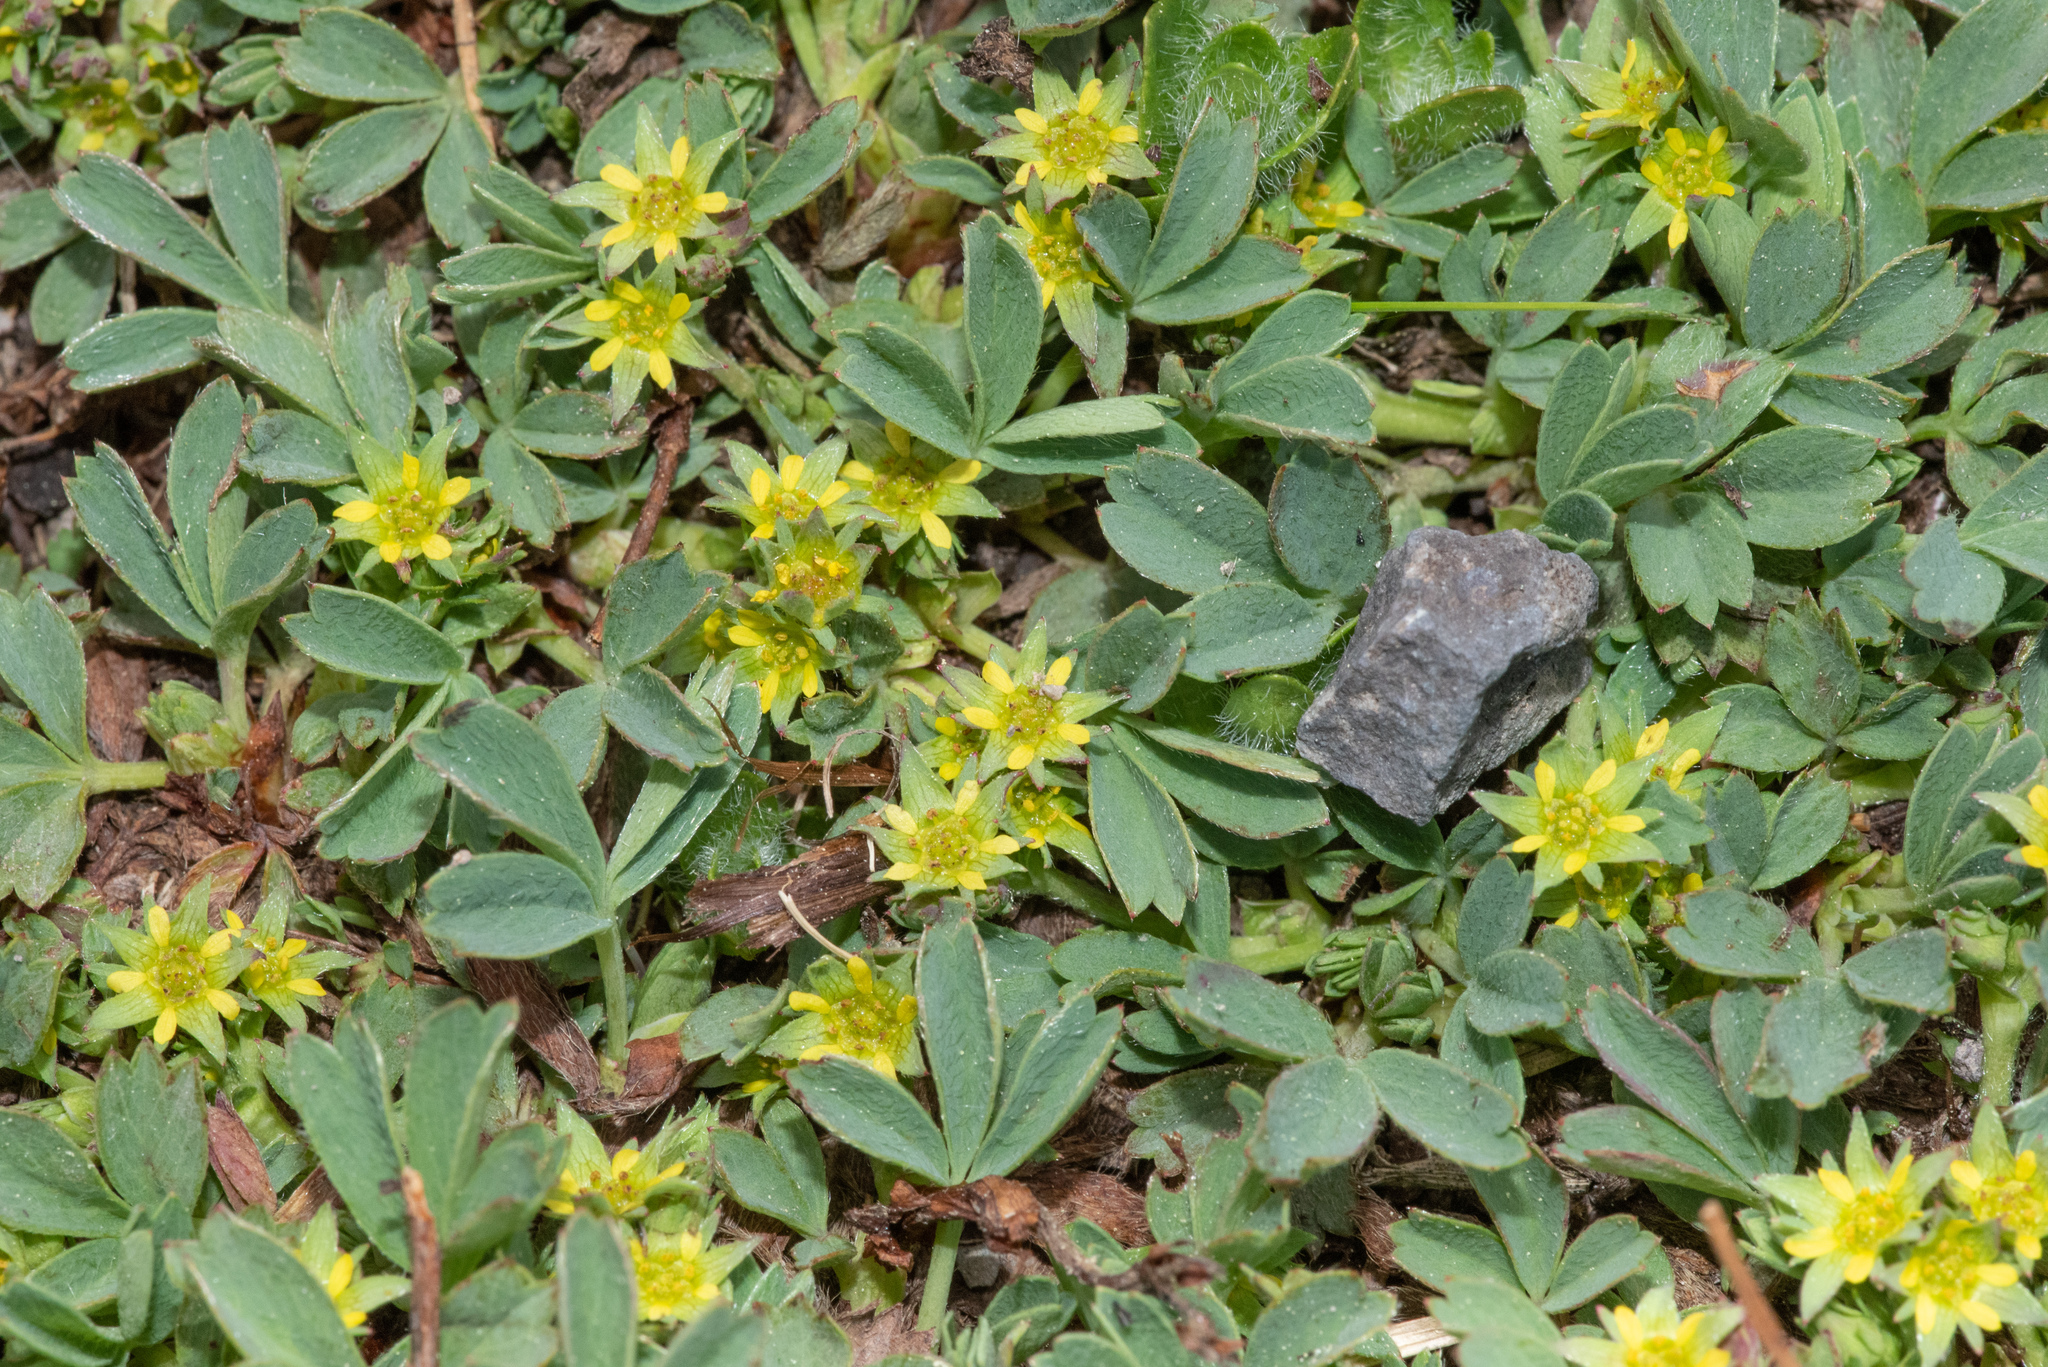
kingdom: Plantae
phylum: Tracheophyta
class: Magnoliopsida
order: Rosales
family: Rosaceae
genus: Sibbaldia
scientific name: Sibbaldia procumbens
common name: Creeping sibbaldia
